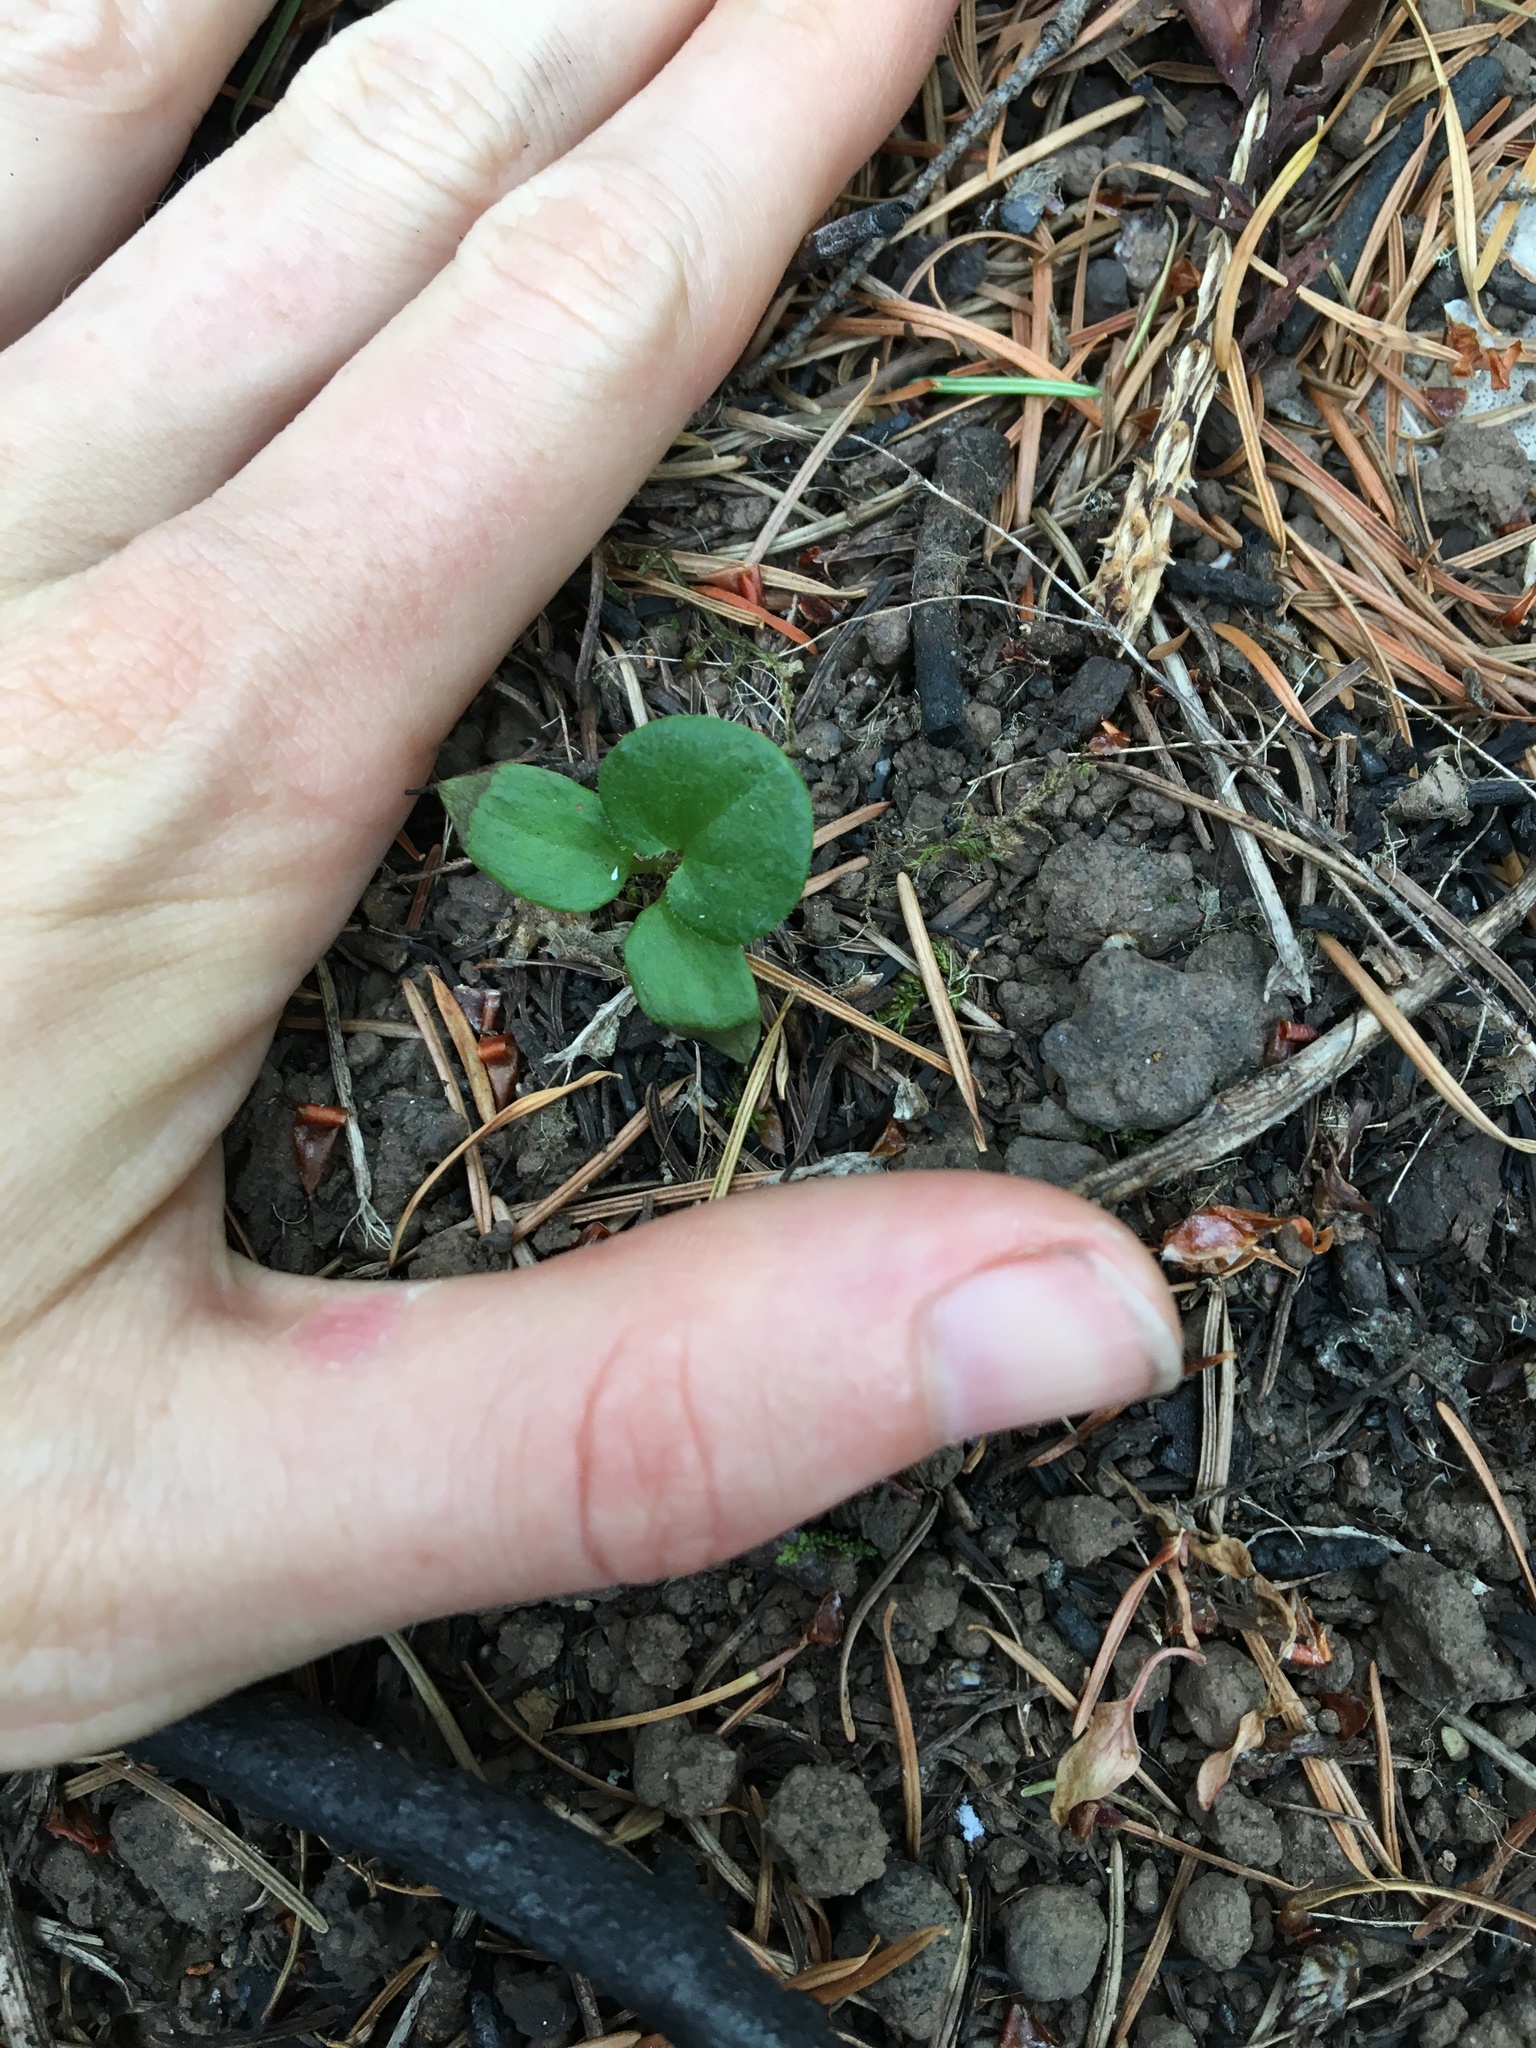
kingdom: Plantae
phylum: Tracheophyta
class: Magnoliopsida
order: Piperales
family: Aristolochiaceae
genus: Asarum
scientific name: Asarum caudatum
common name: Wild ginger
